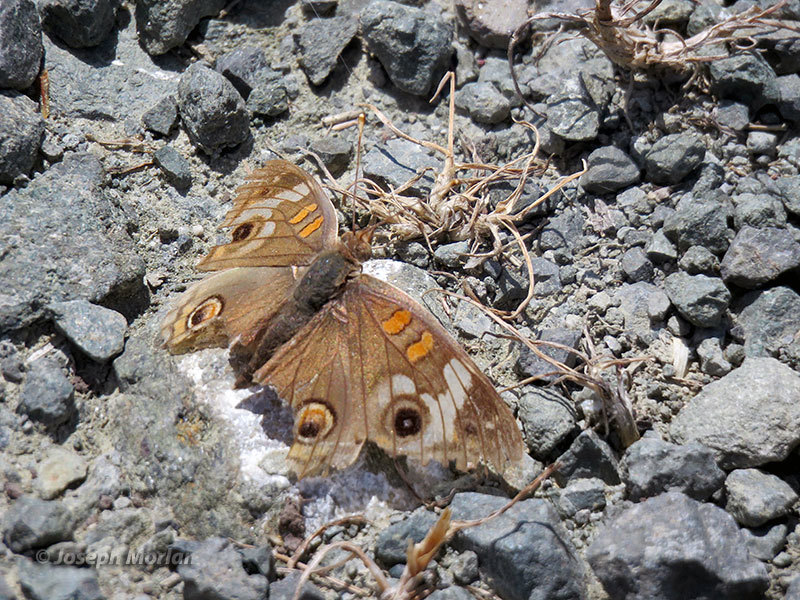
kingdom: Animalia
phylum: Arthropoda
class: Insecta
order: Lepidoptera
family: Nymphalidae
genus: Junonia
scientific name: Junonia grisea
